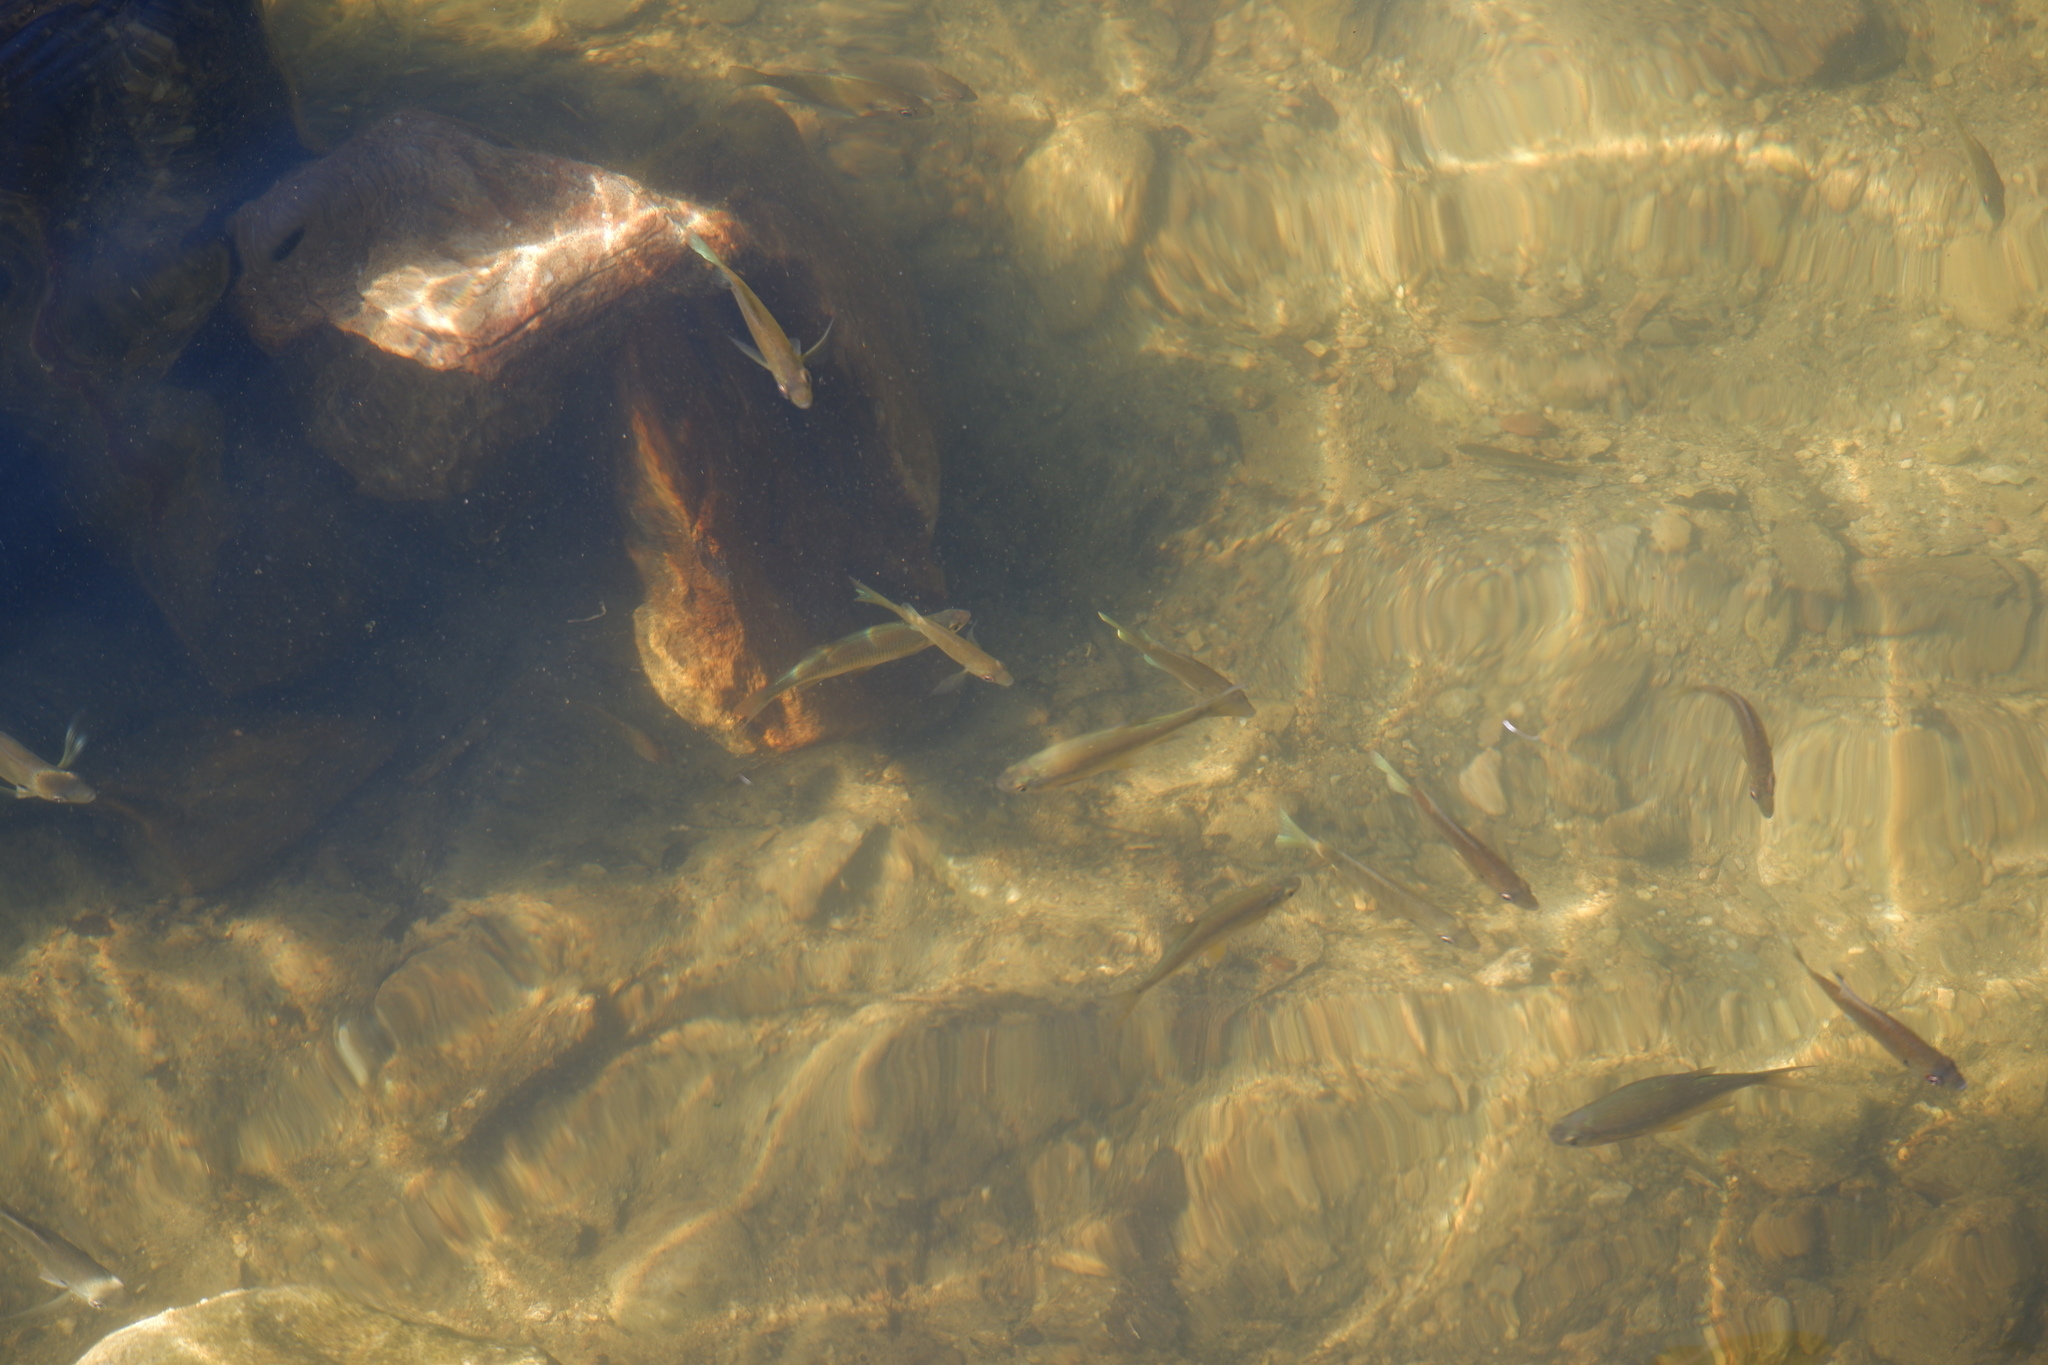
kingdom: Animalia
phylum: Chordata
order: Cypriniformes
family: Cyprinidae
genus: Notemigonus
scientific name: Notemigonus crysoleucas
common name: Golden shiner
